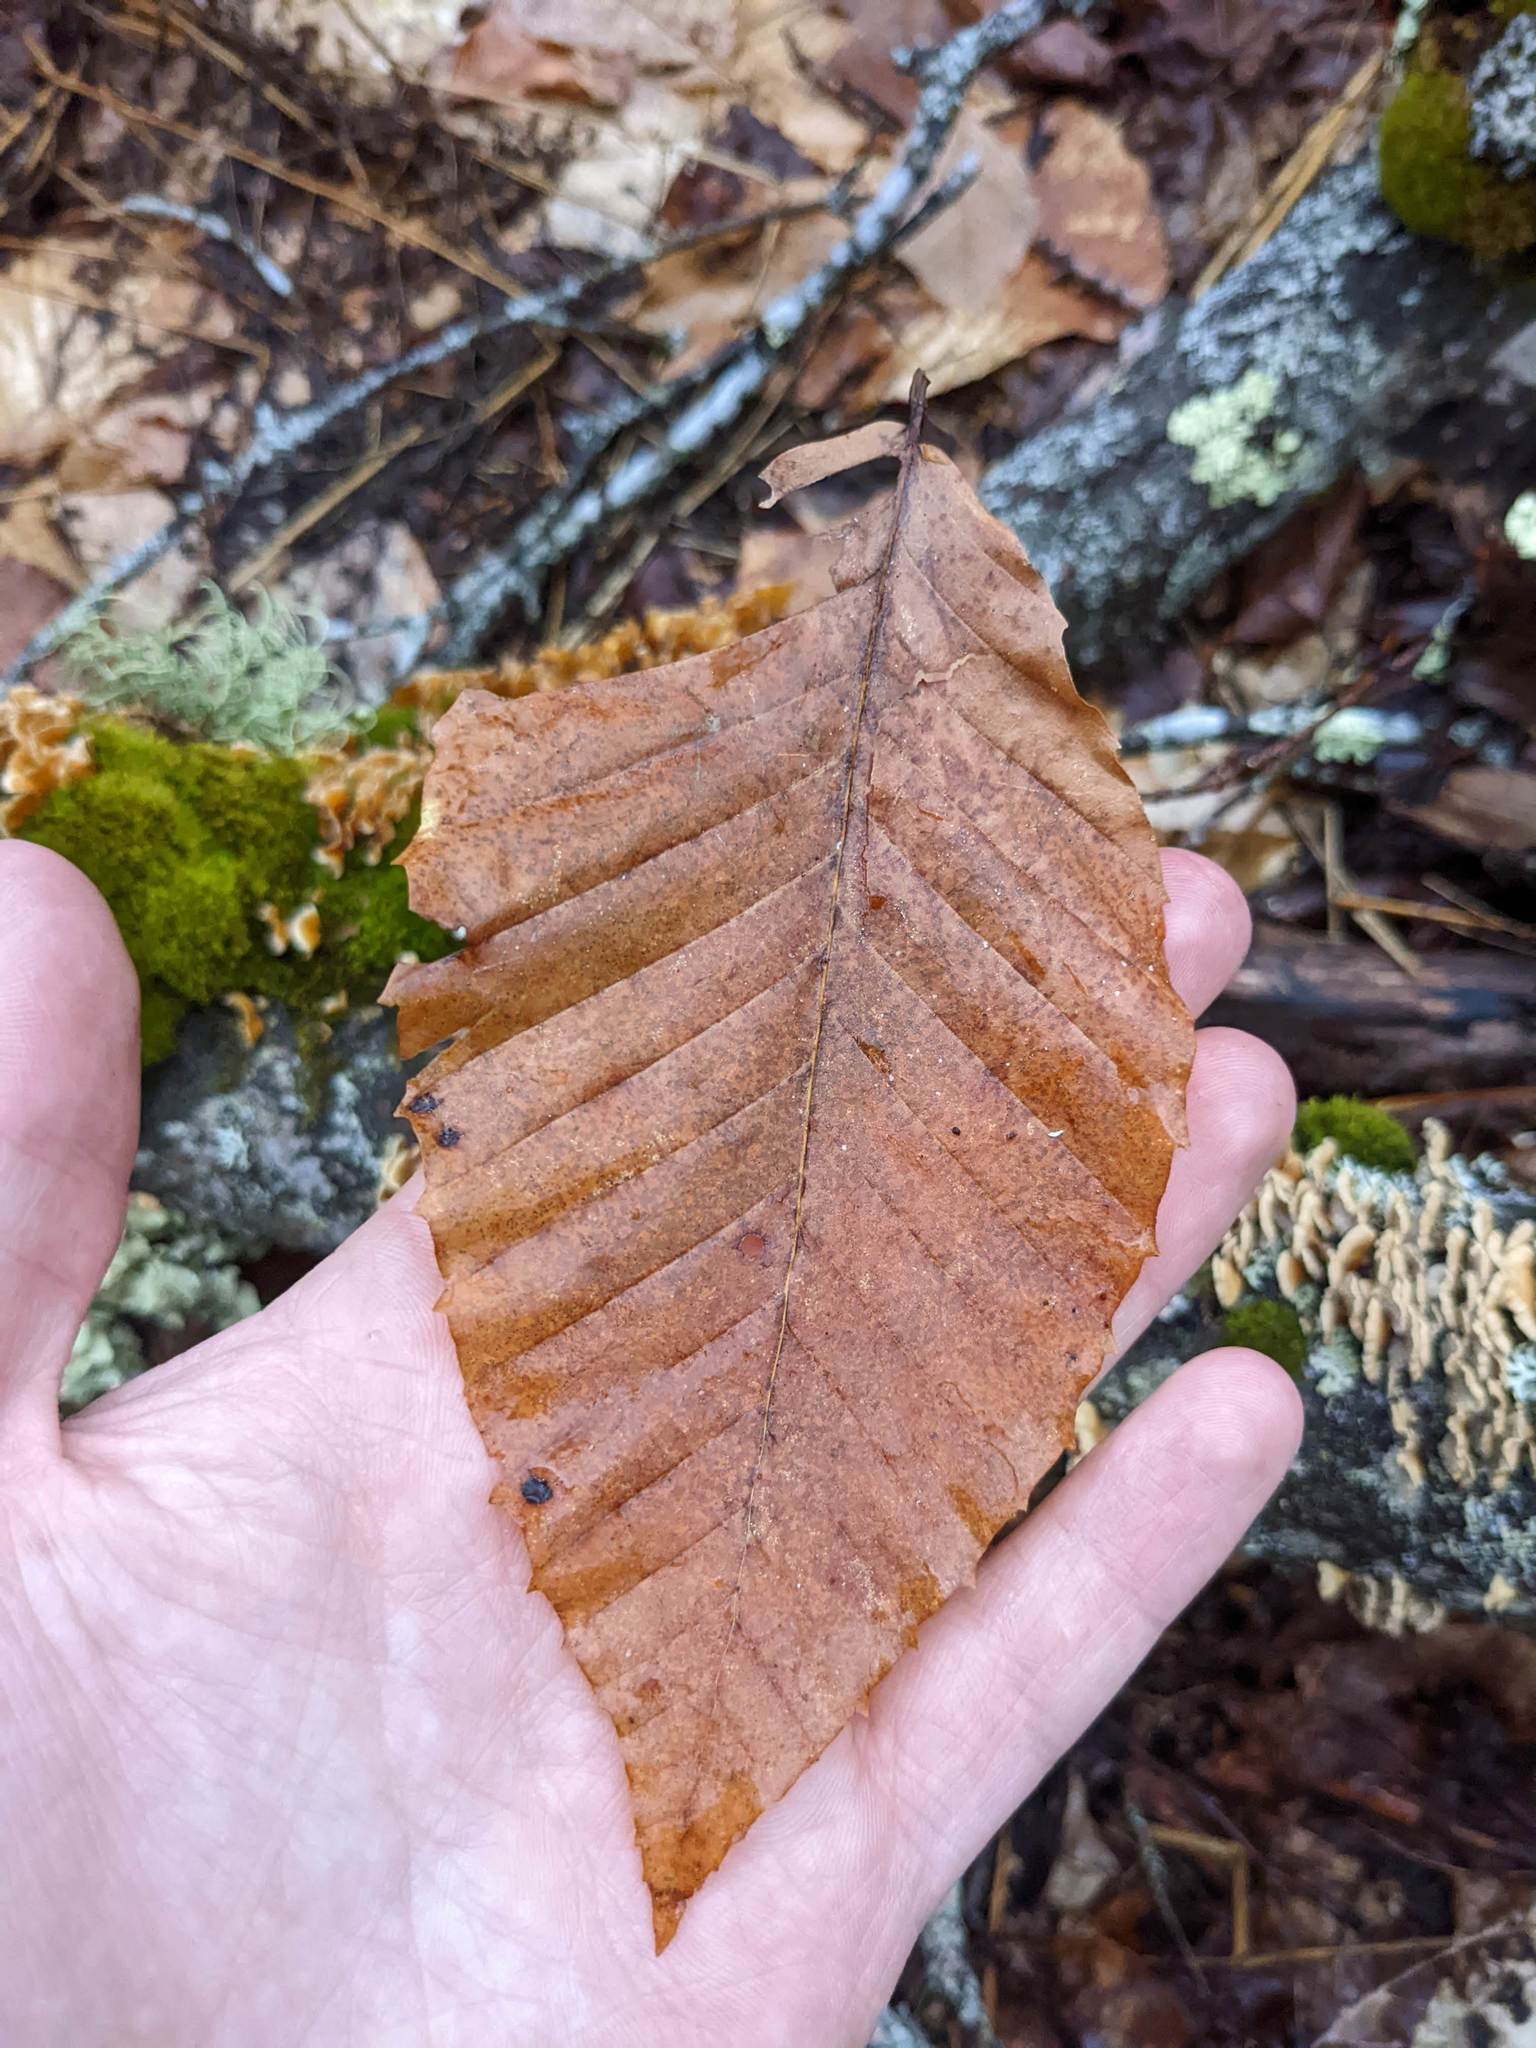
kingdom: Plantae
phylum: Tracheophyta
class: Magnoliopsida
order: Fagales
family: Fagaceae
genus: Fagus
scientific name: Fagus grandifolia
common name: American beech
